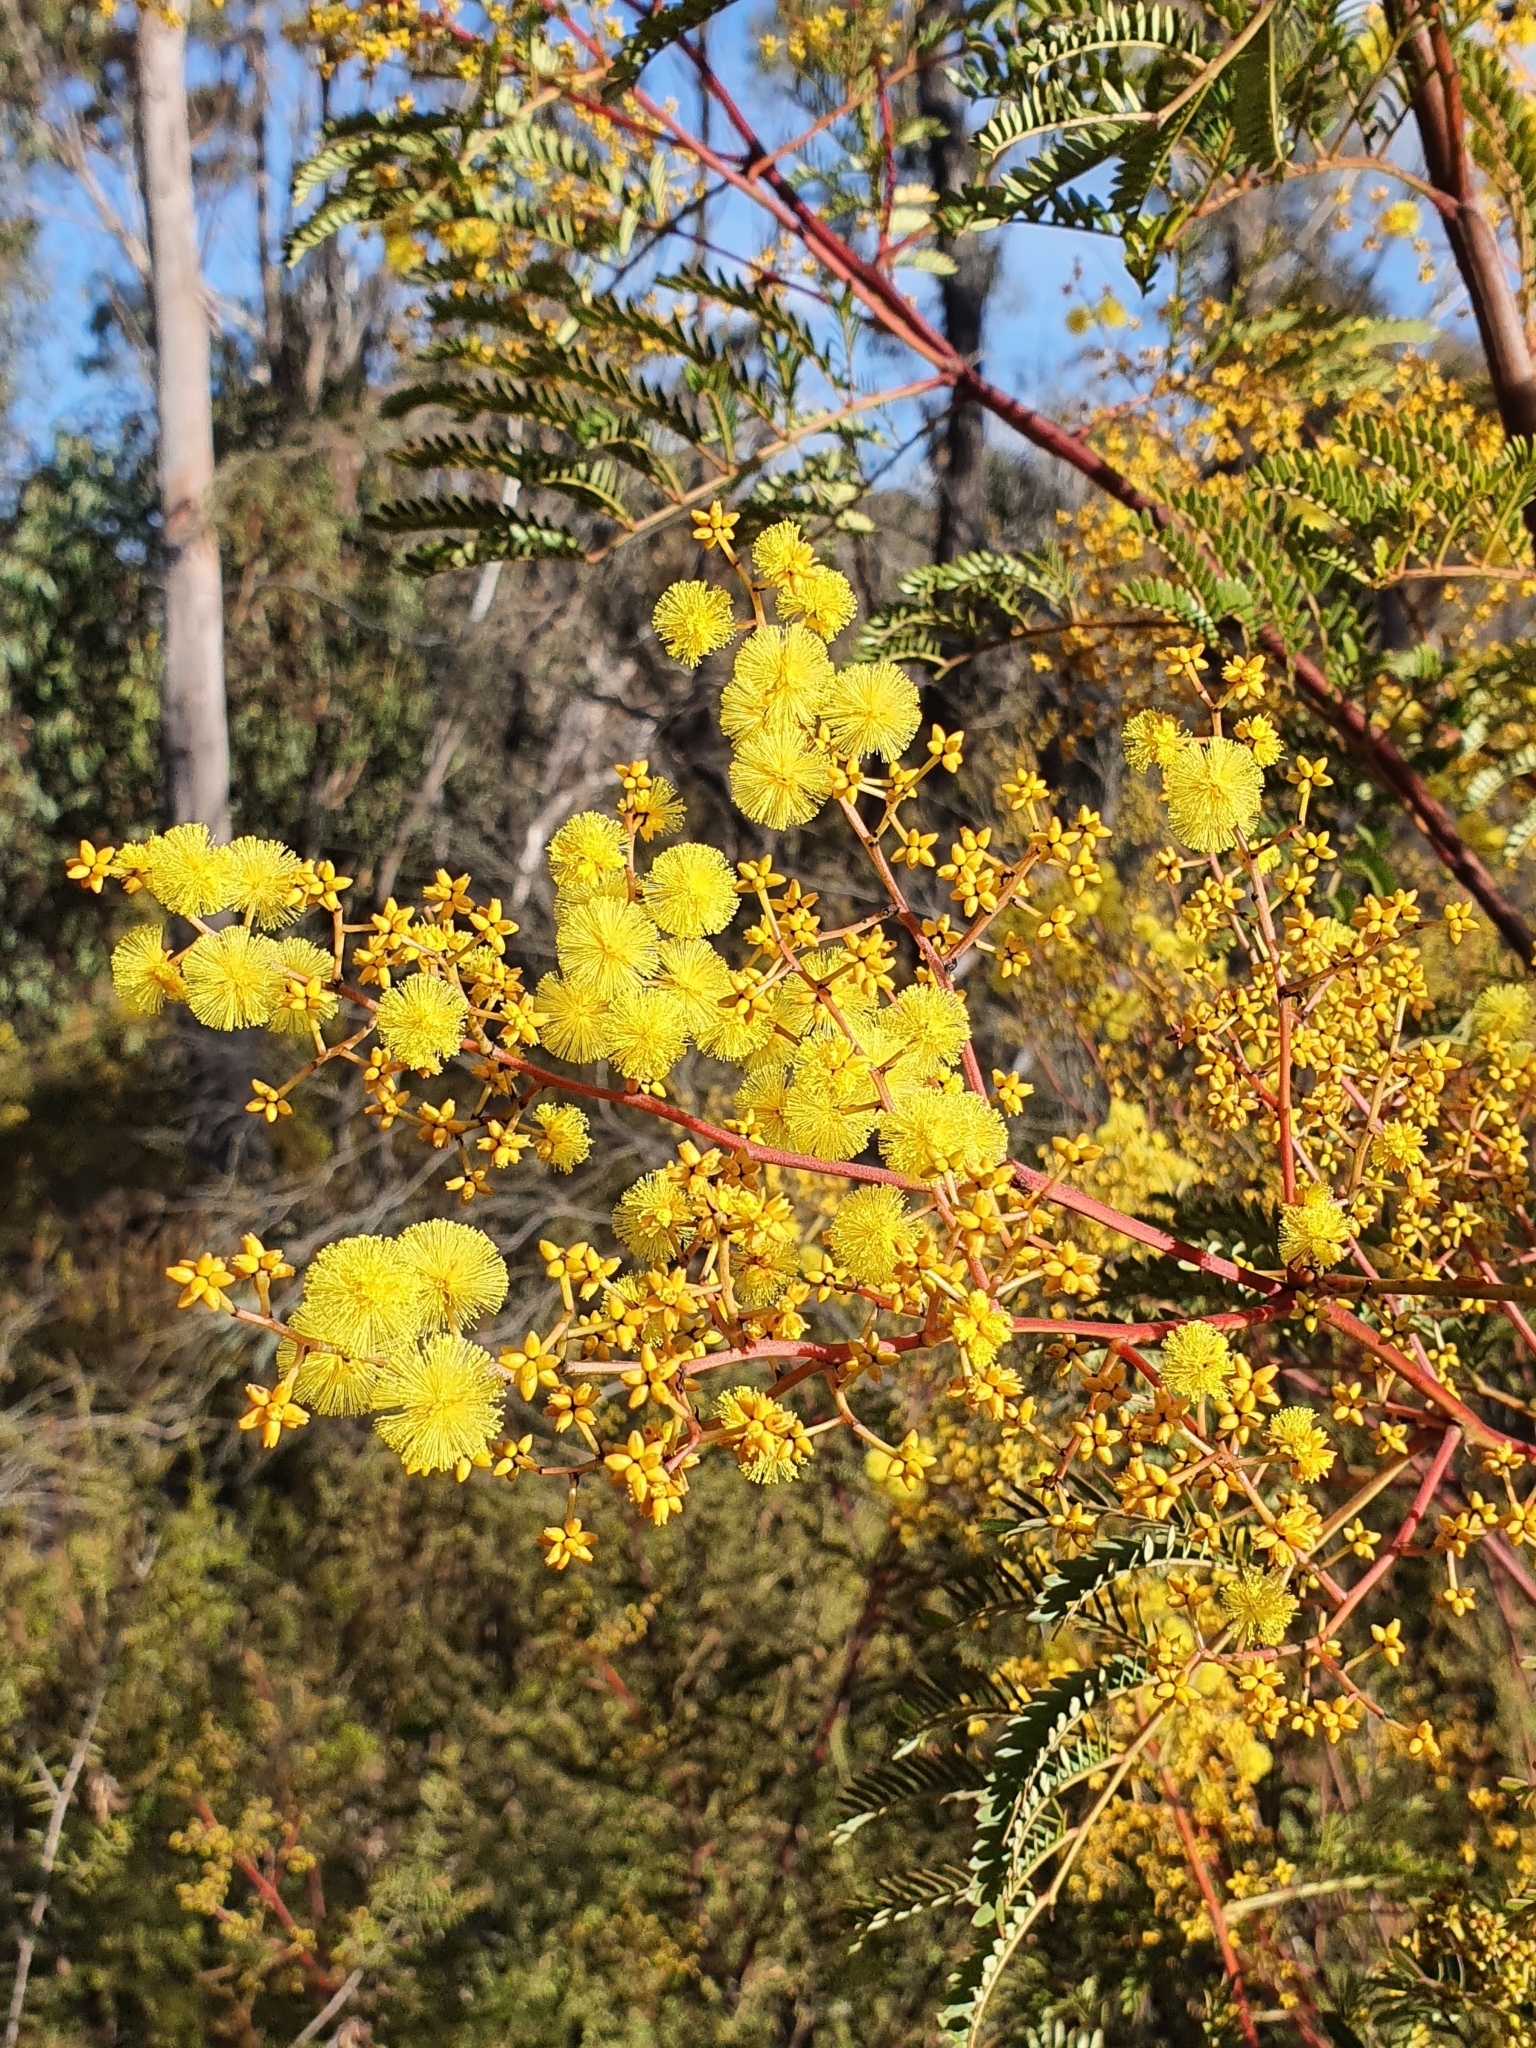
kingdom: Plantae
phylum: Tracheophyta
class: Magnoliopsida
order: Fabales
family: Fabaceae
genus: Acacia
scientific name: Acacia terminalis
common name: Cedar wattle
